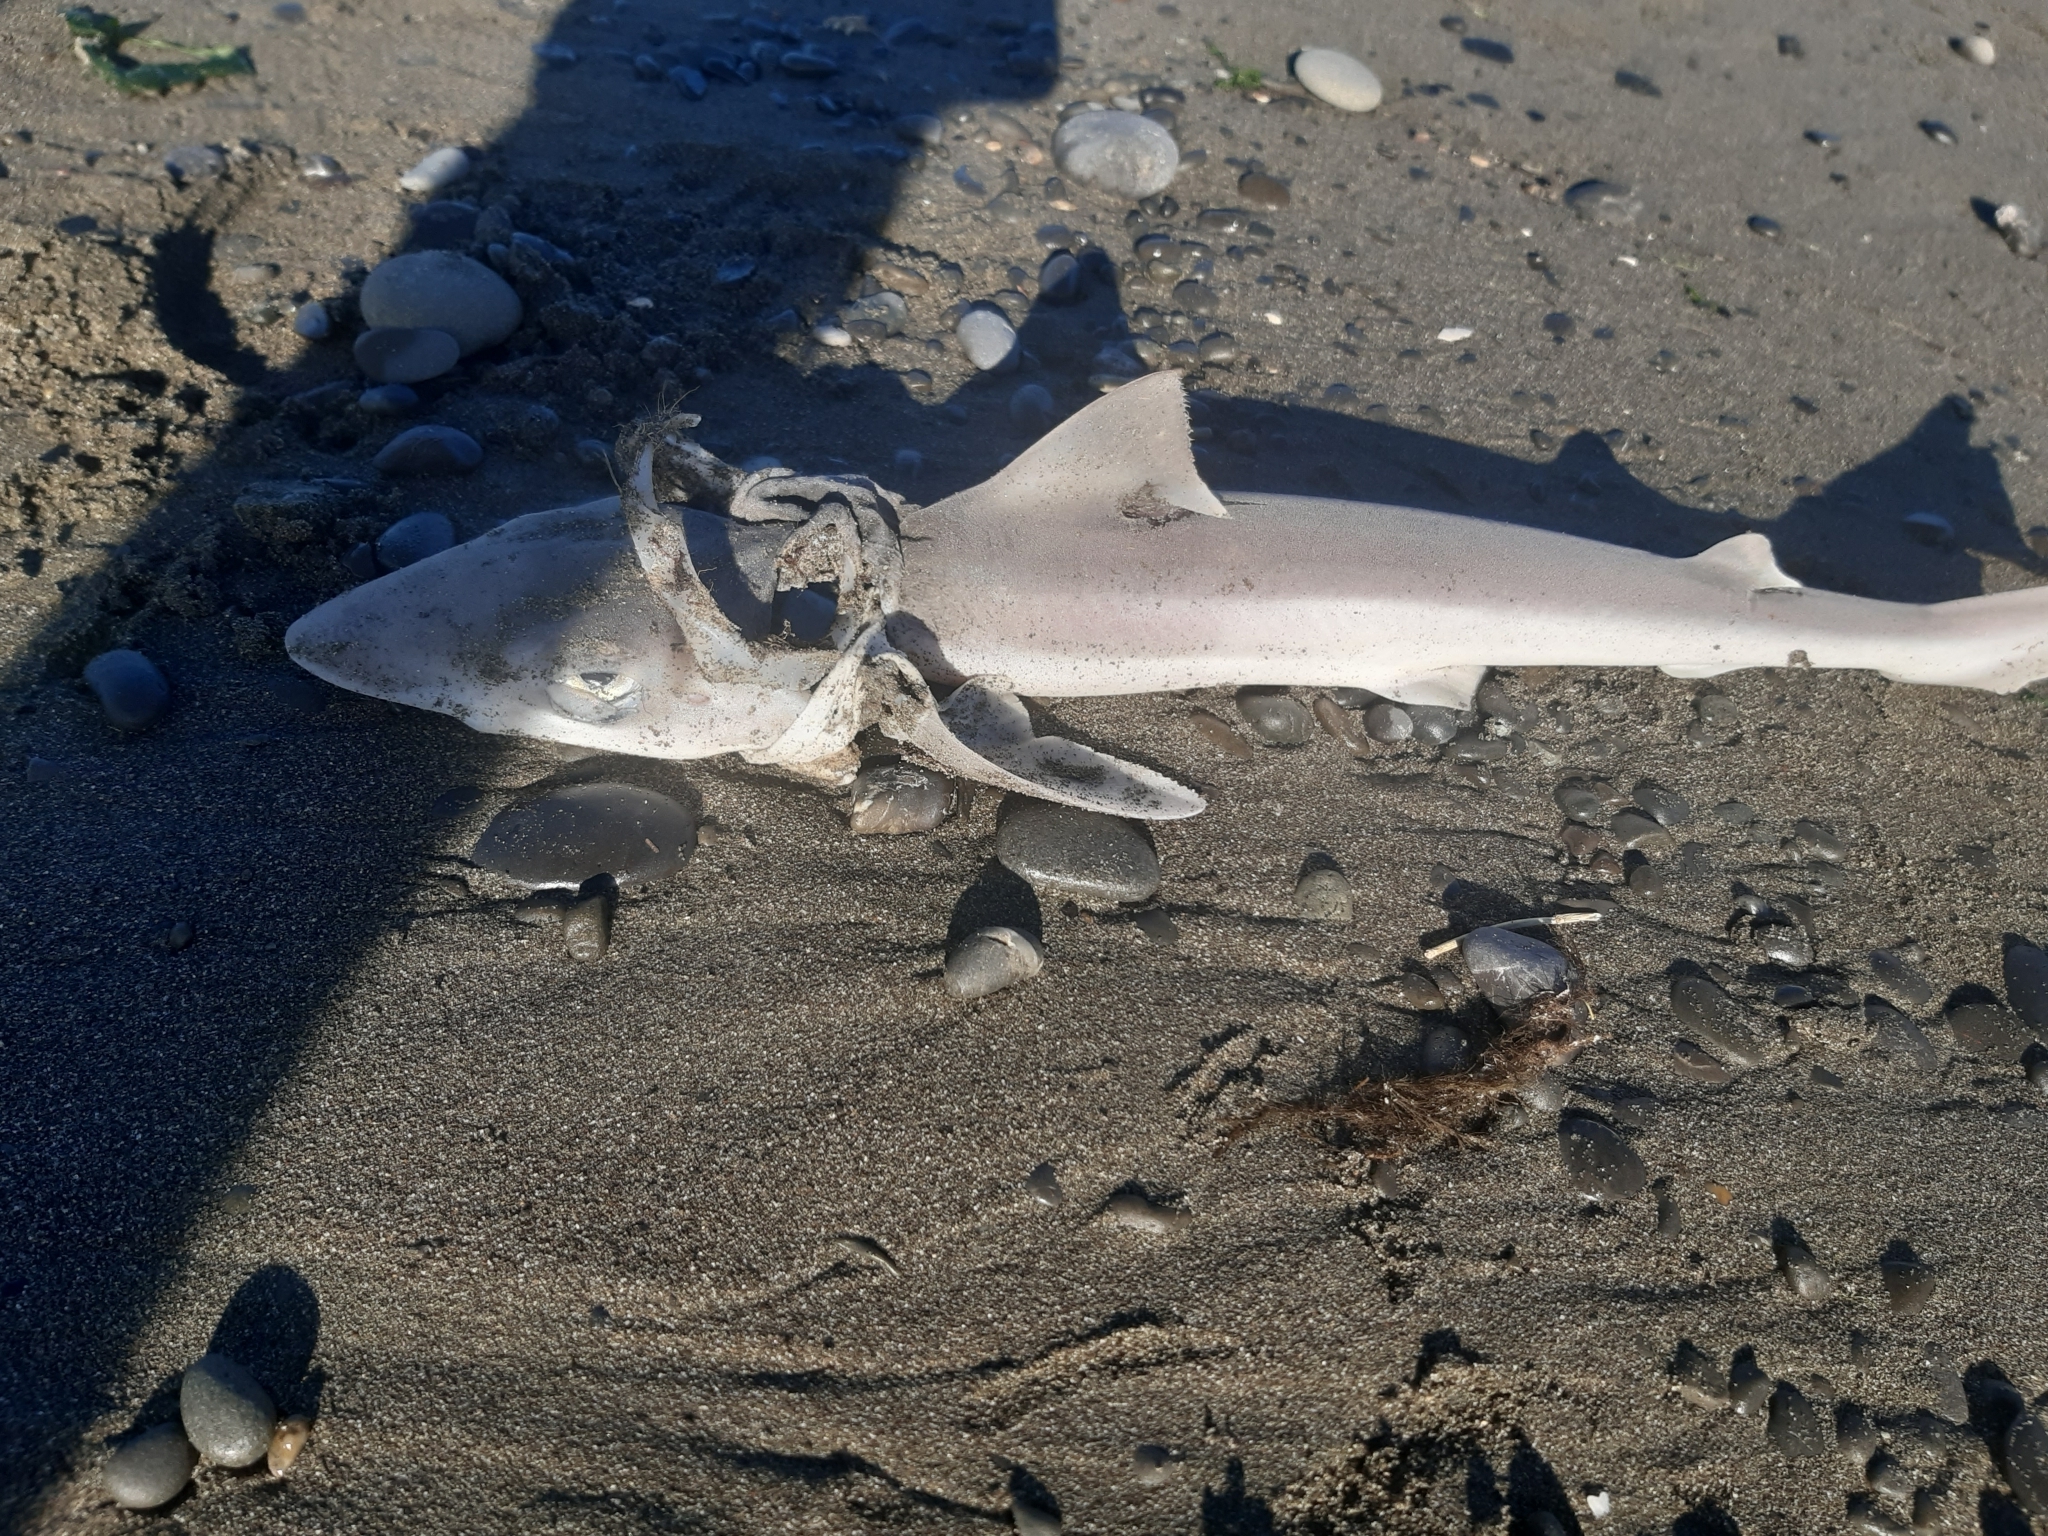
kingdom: Animalia
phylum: Chordata
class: Elasmobranchii
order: Carcharhiniformes
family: Triakidae
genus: Galeorhinus
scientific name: Galeorhinus galeus
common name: Tope
